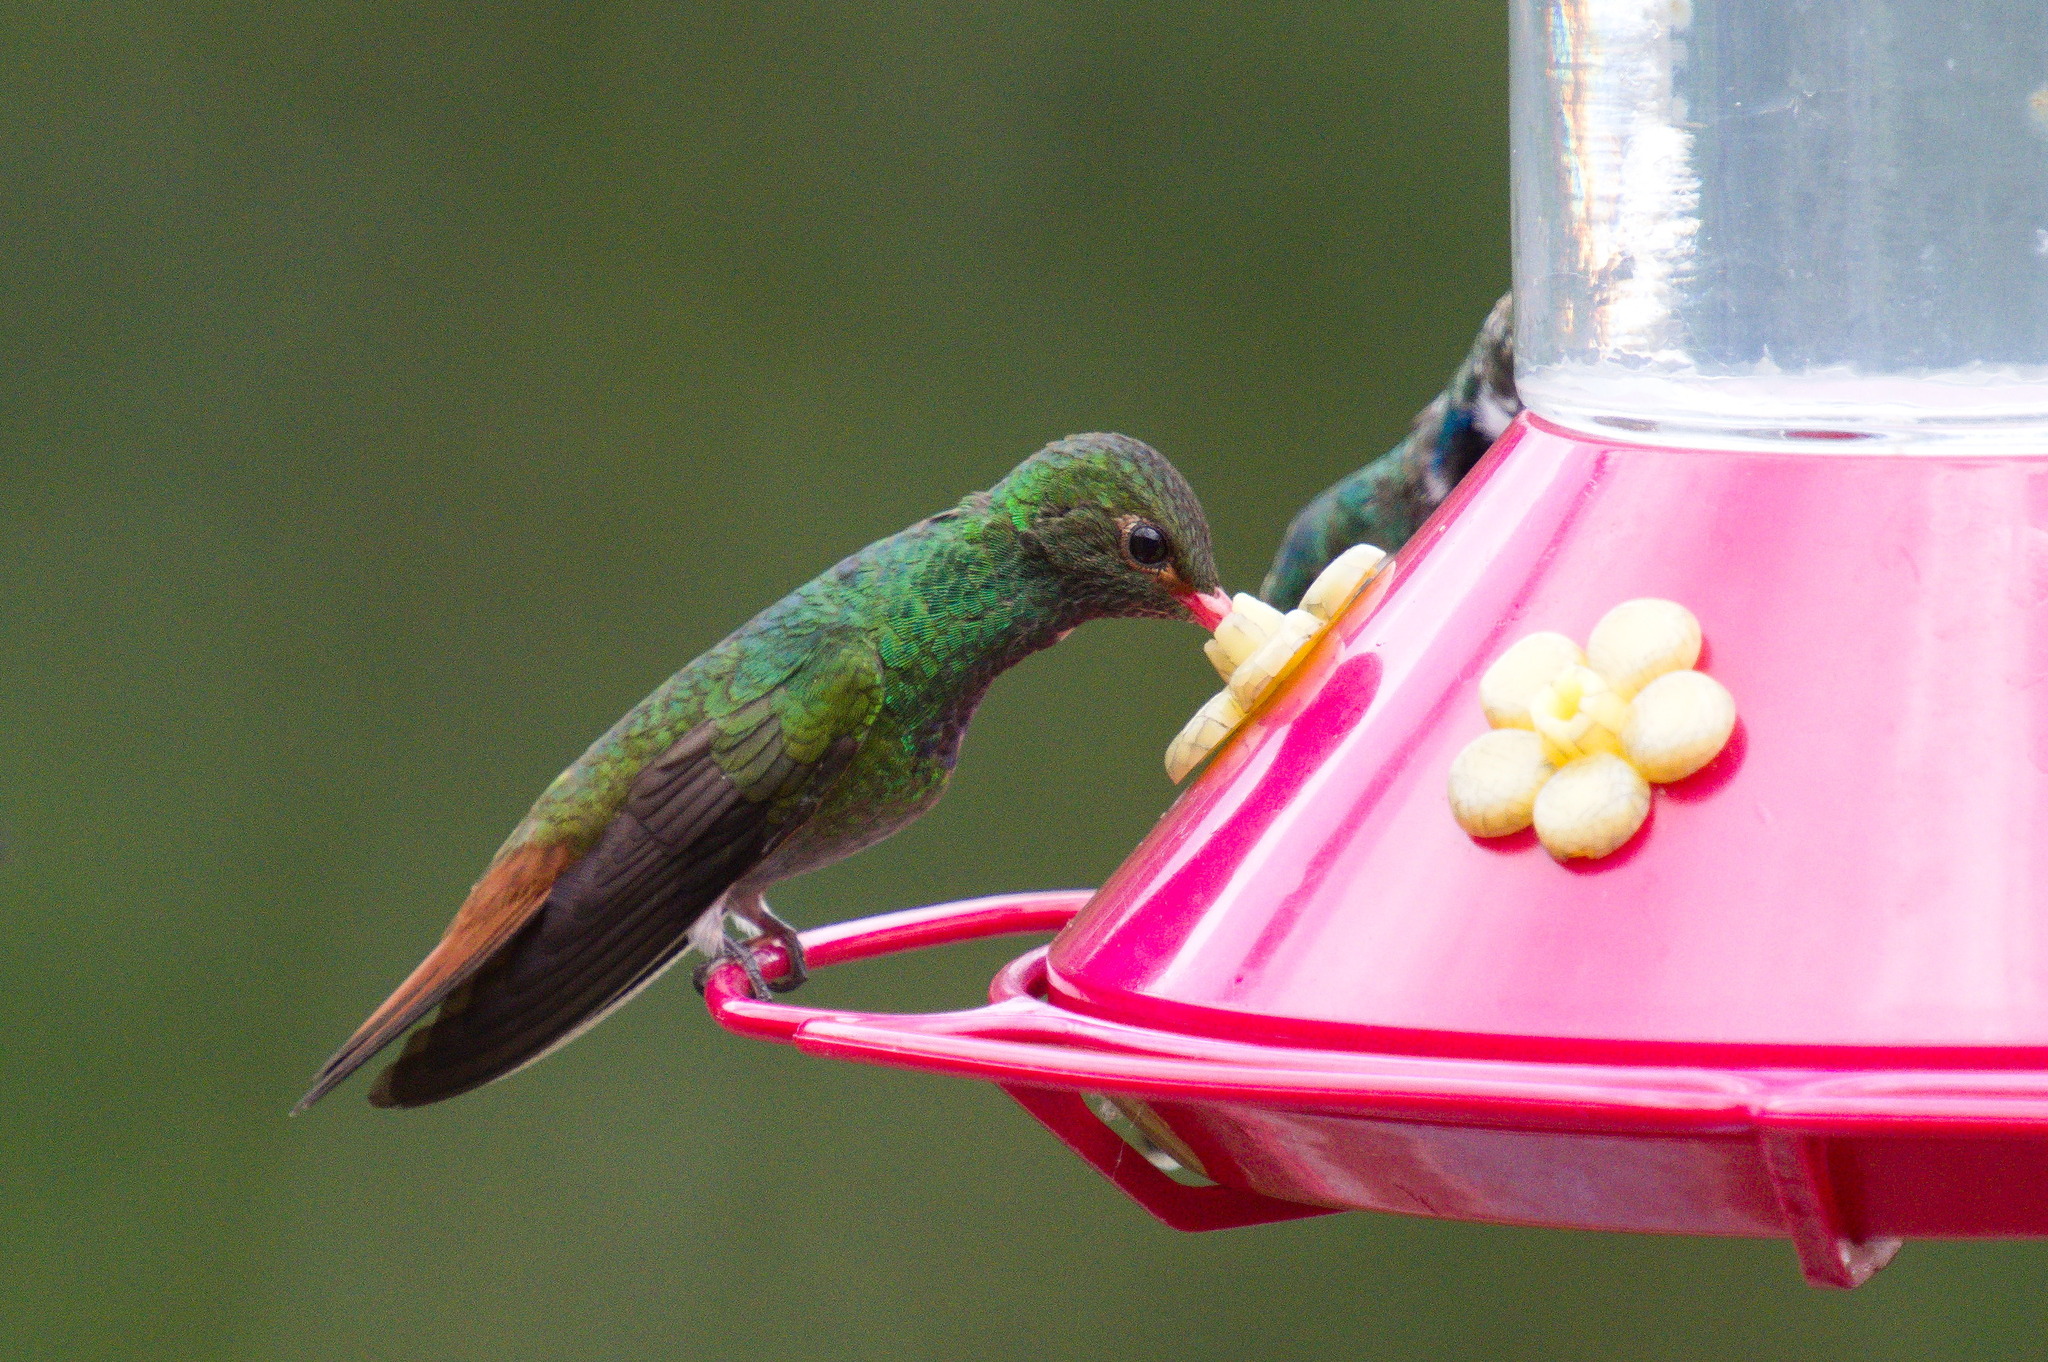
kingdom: Animalia
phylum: Chordata
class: Aves
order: Apodiformes
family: Trochilidae
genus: Amazilia
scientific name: Amazilia tzacatl
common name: Rufous-tailed hummingbird
